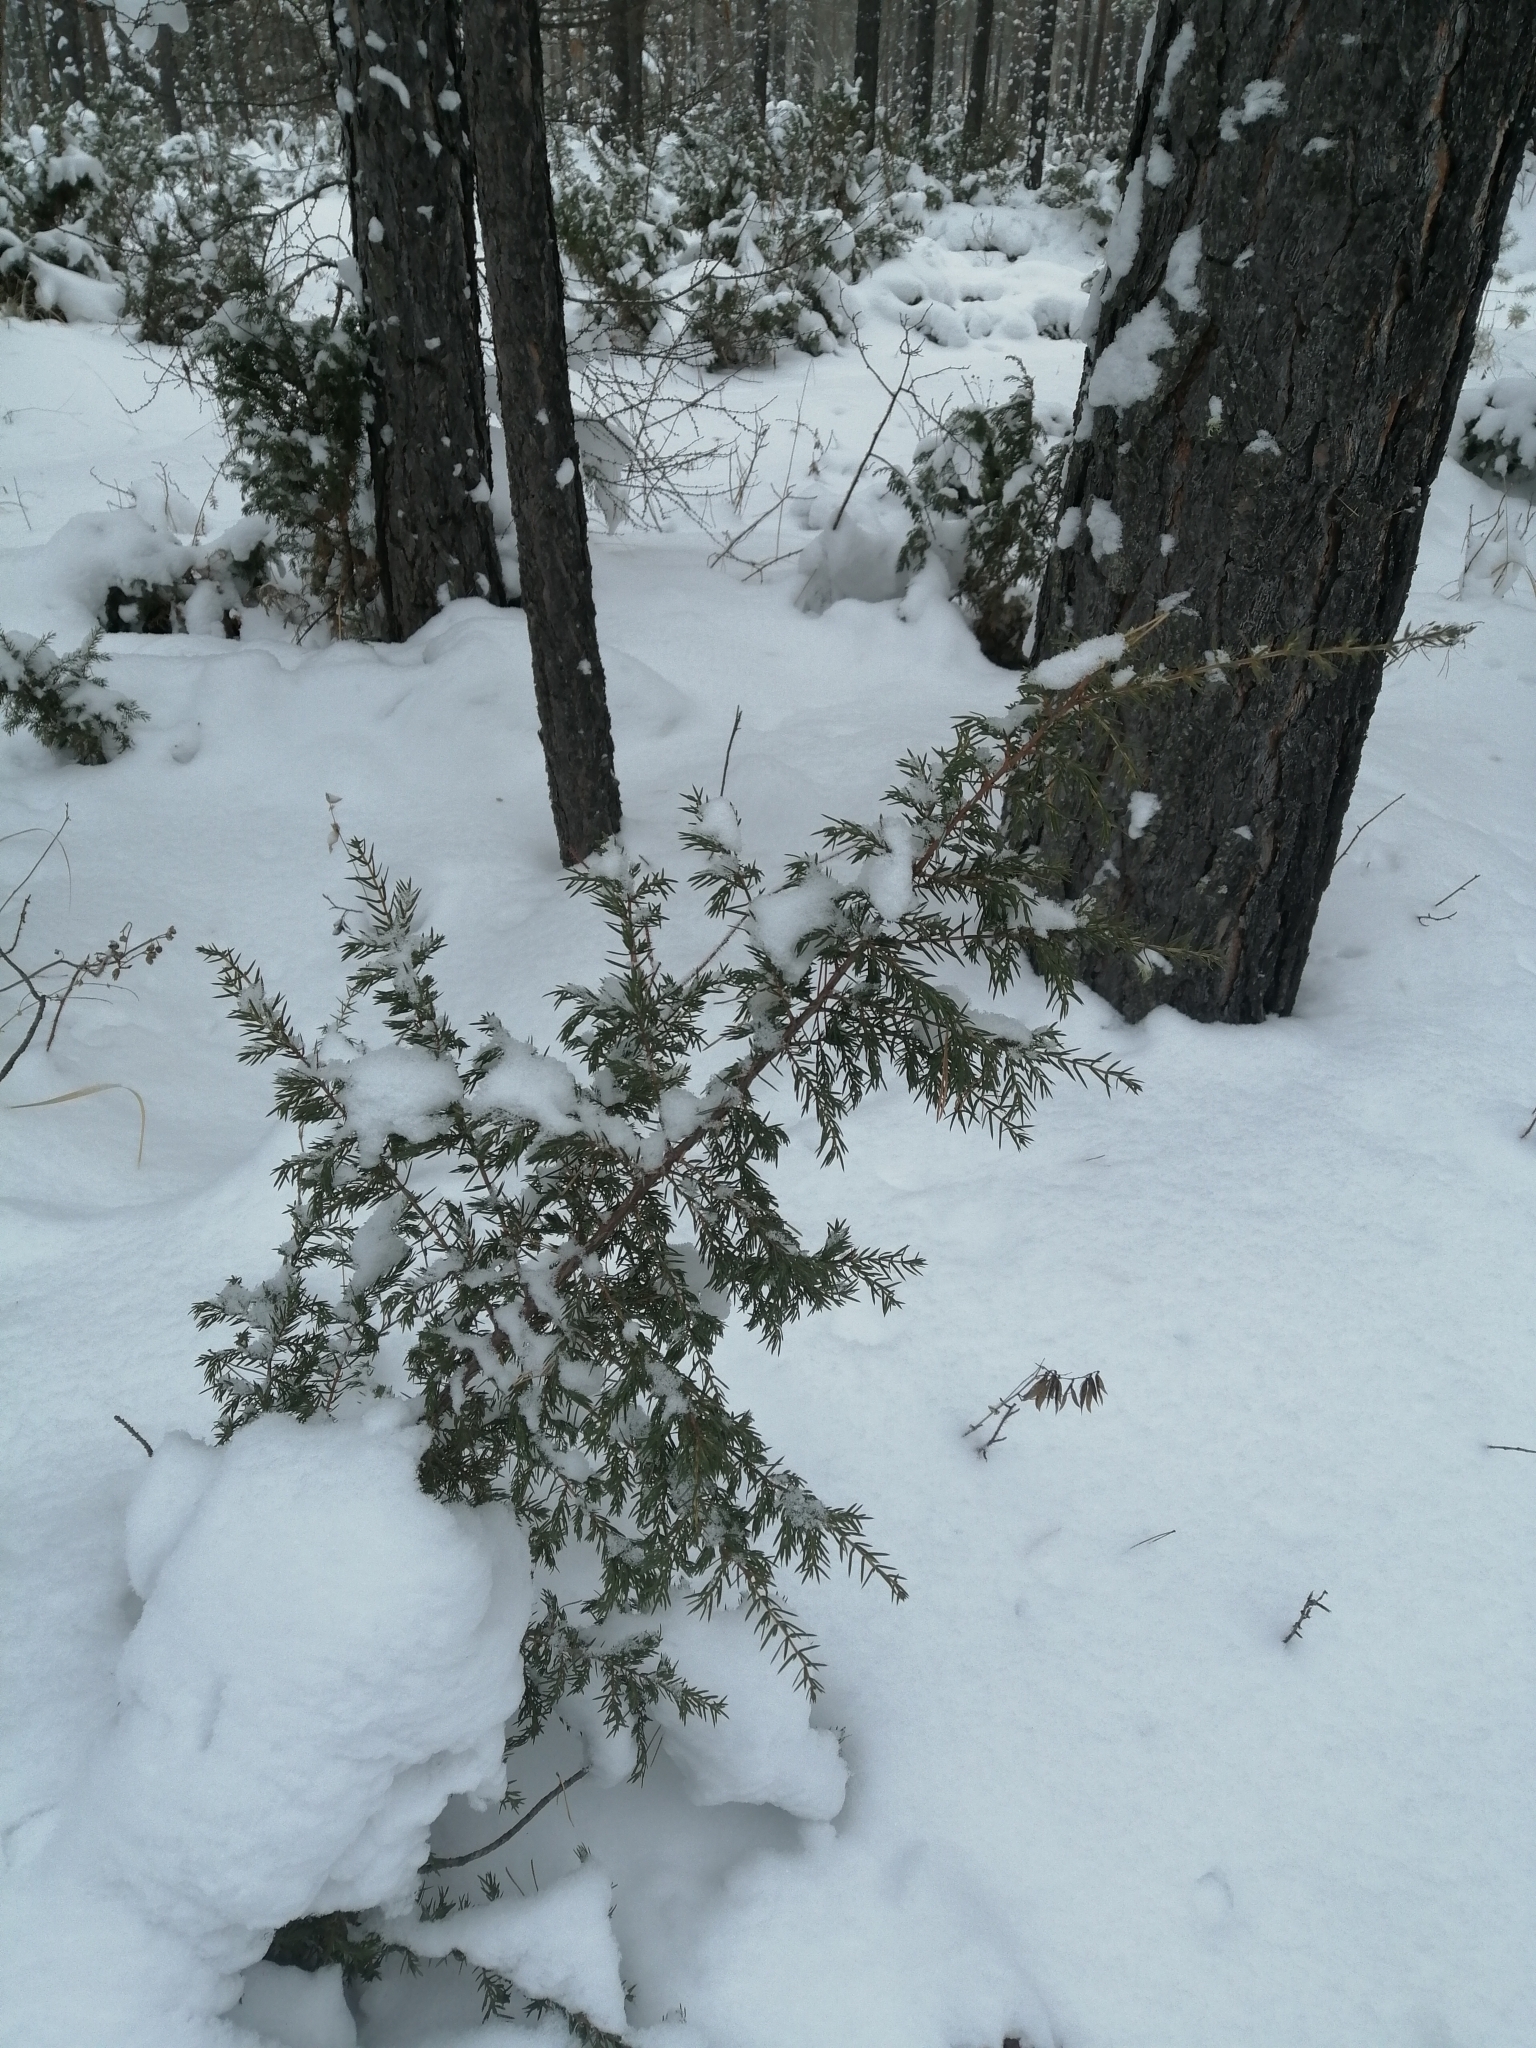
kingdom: Plantae
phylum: Tracheophyta
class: Pinopsida
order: Pinales
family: Cupressaceae
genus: Juniperus
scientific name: Juniperus communis
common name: Common juniper
